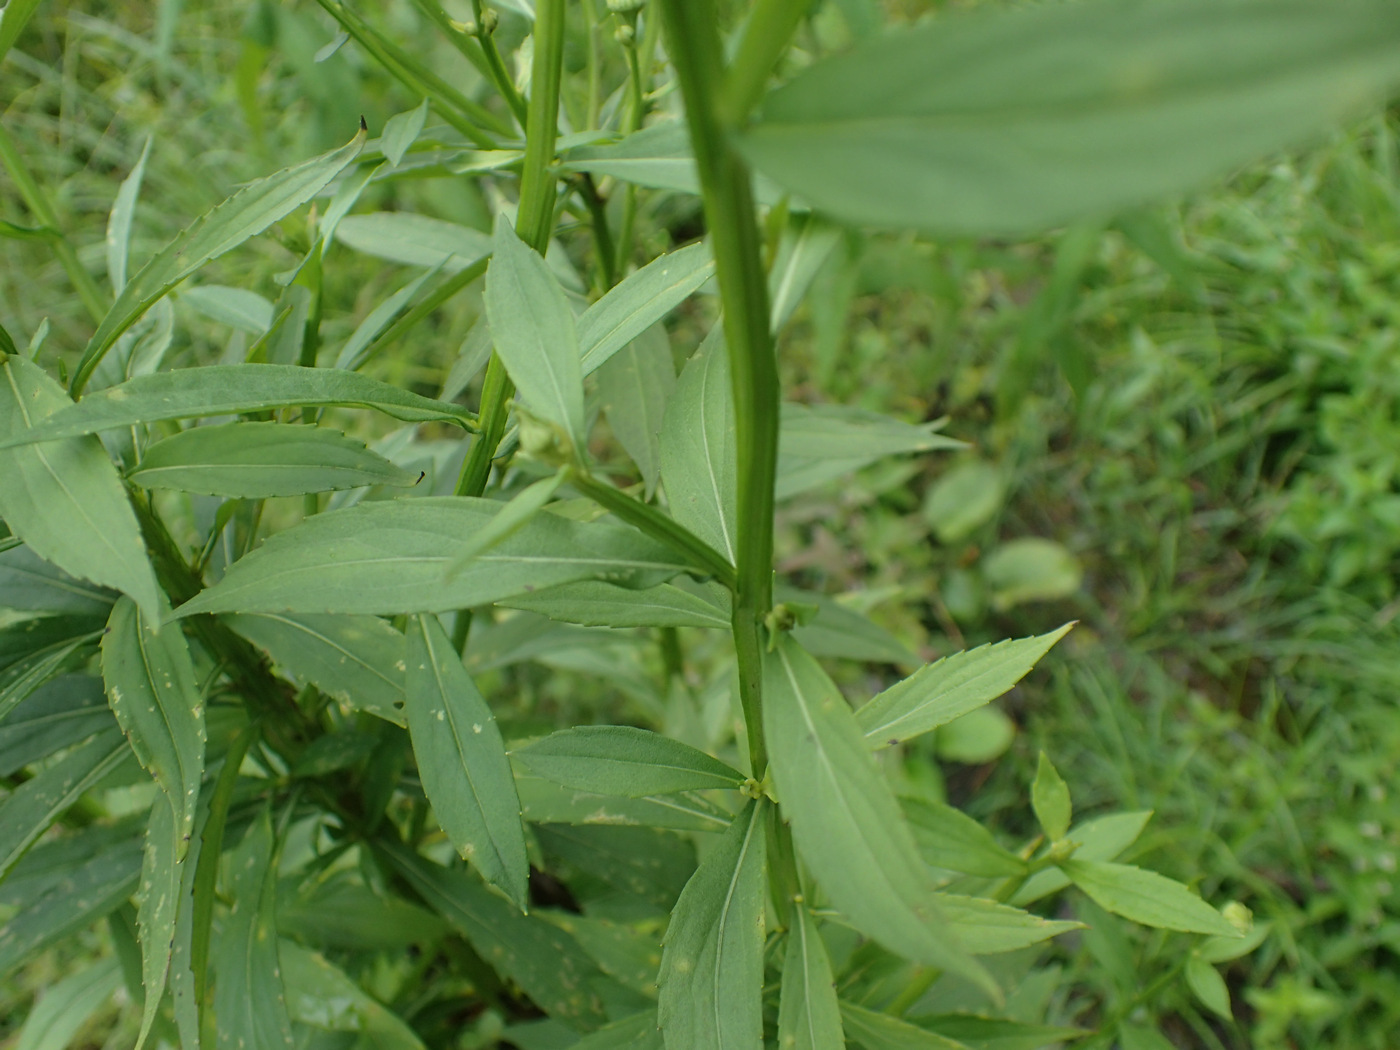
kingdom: Plantae
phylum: Tracheophyta
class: Magnoliopsida
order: Asterales
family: Asteraceae
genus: Helenium
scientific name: Helenium autumnale
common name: Sneezeweed
